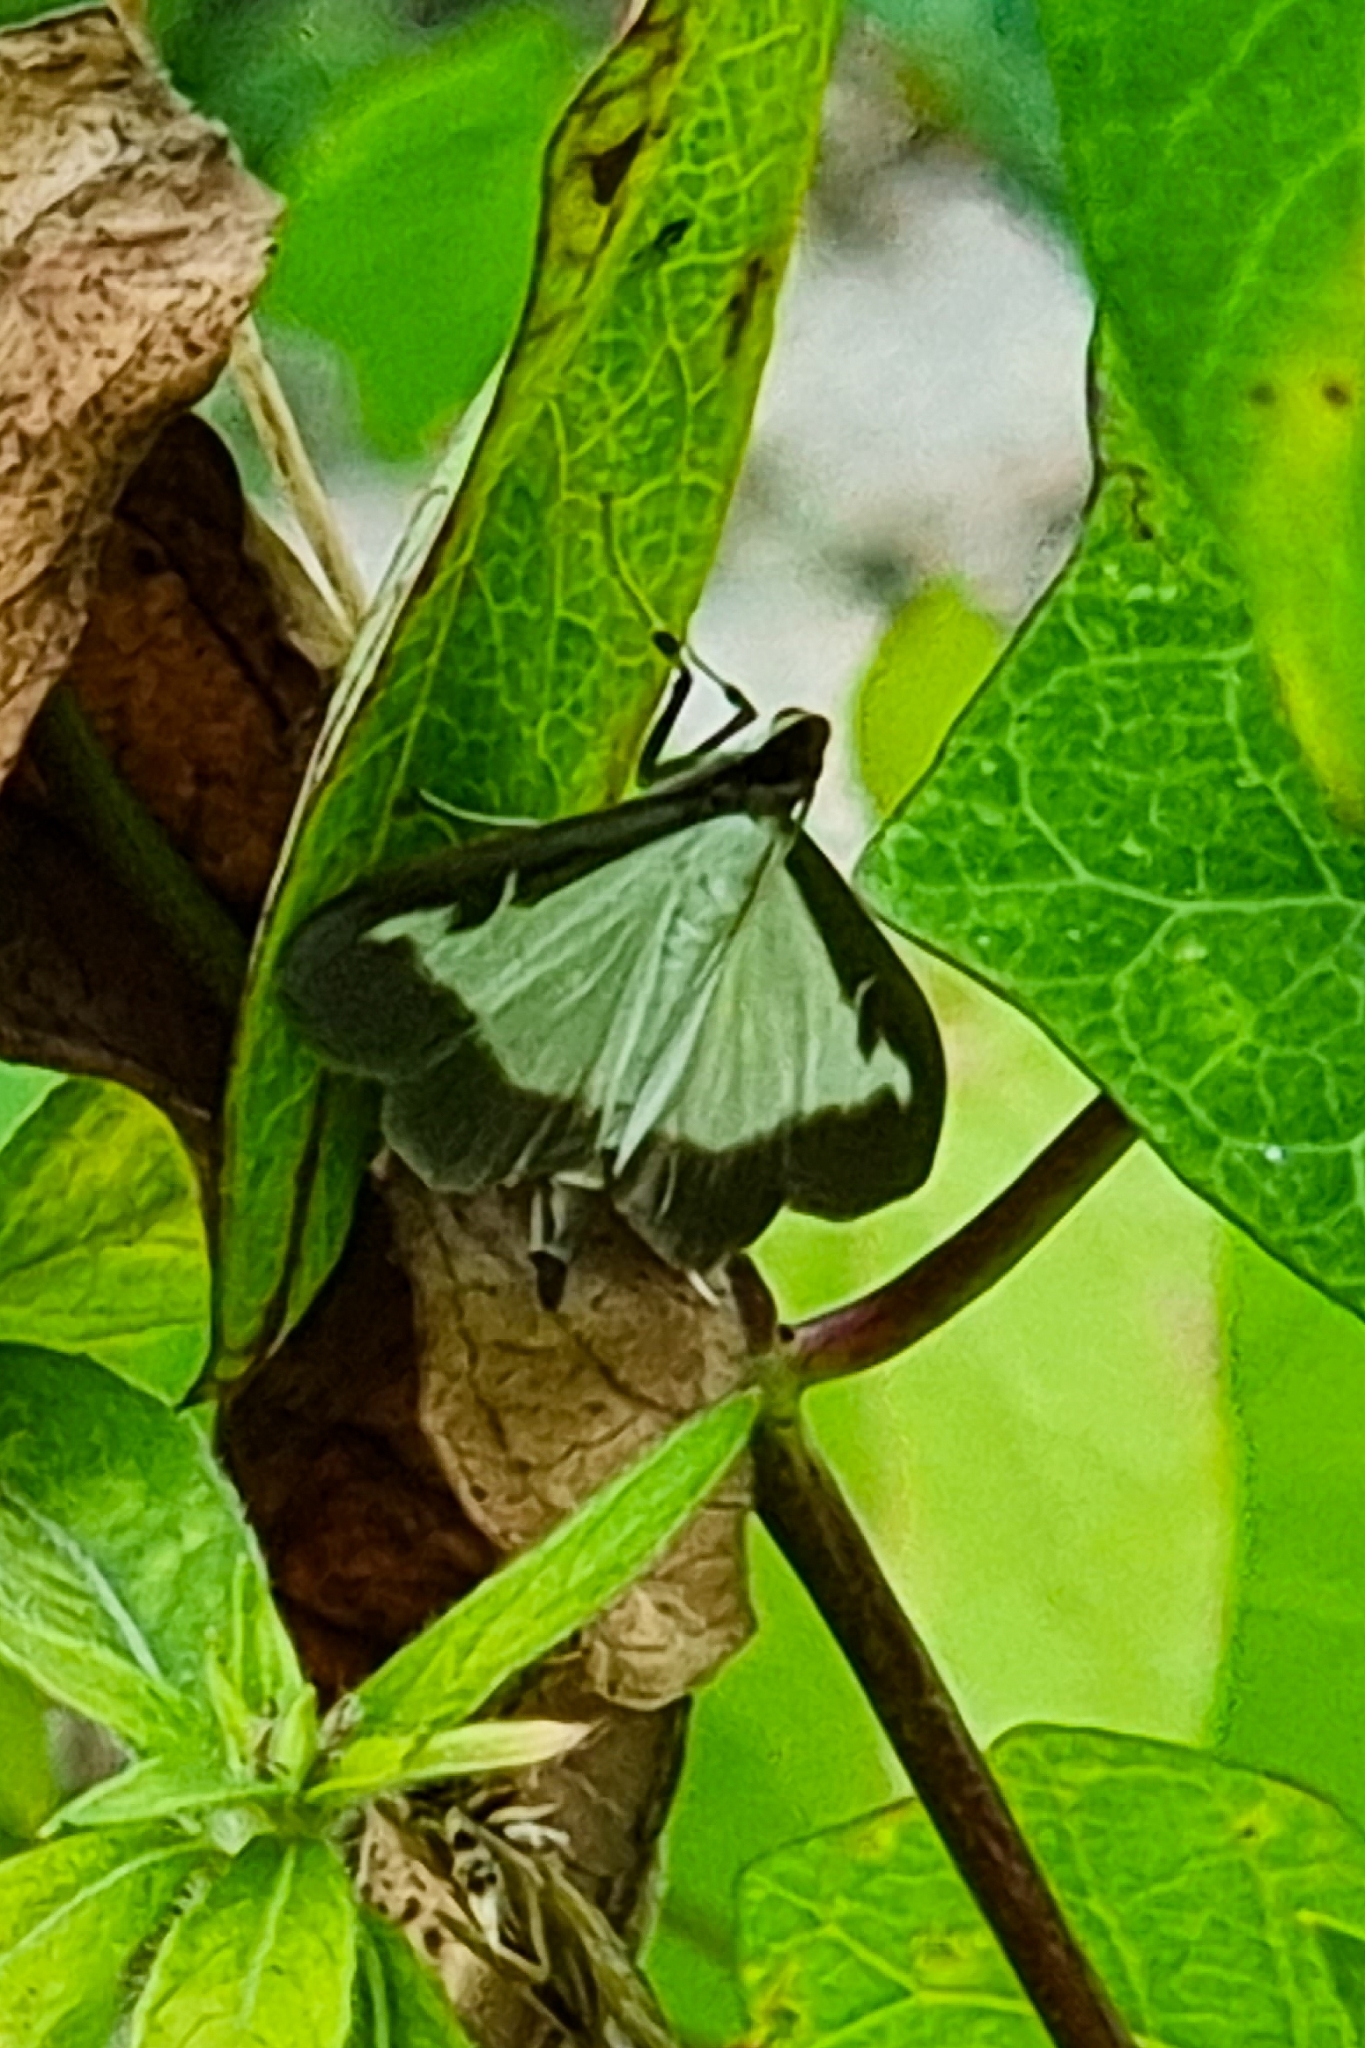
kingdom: Animalia
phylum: Arthropoda
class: Insecta
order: Lepidoptera
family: Crambidae
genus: Cydalima
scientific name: Cydalima perspectalis
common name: Box tree moth
